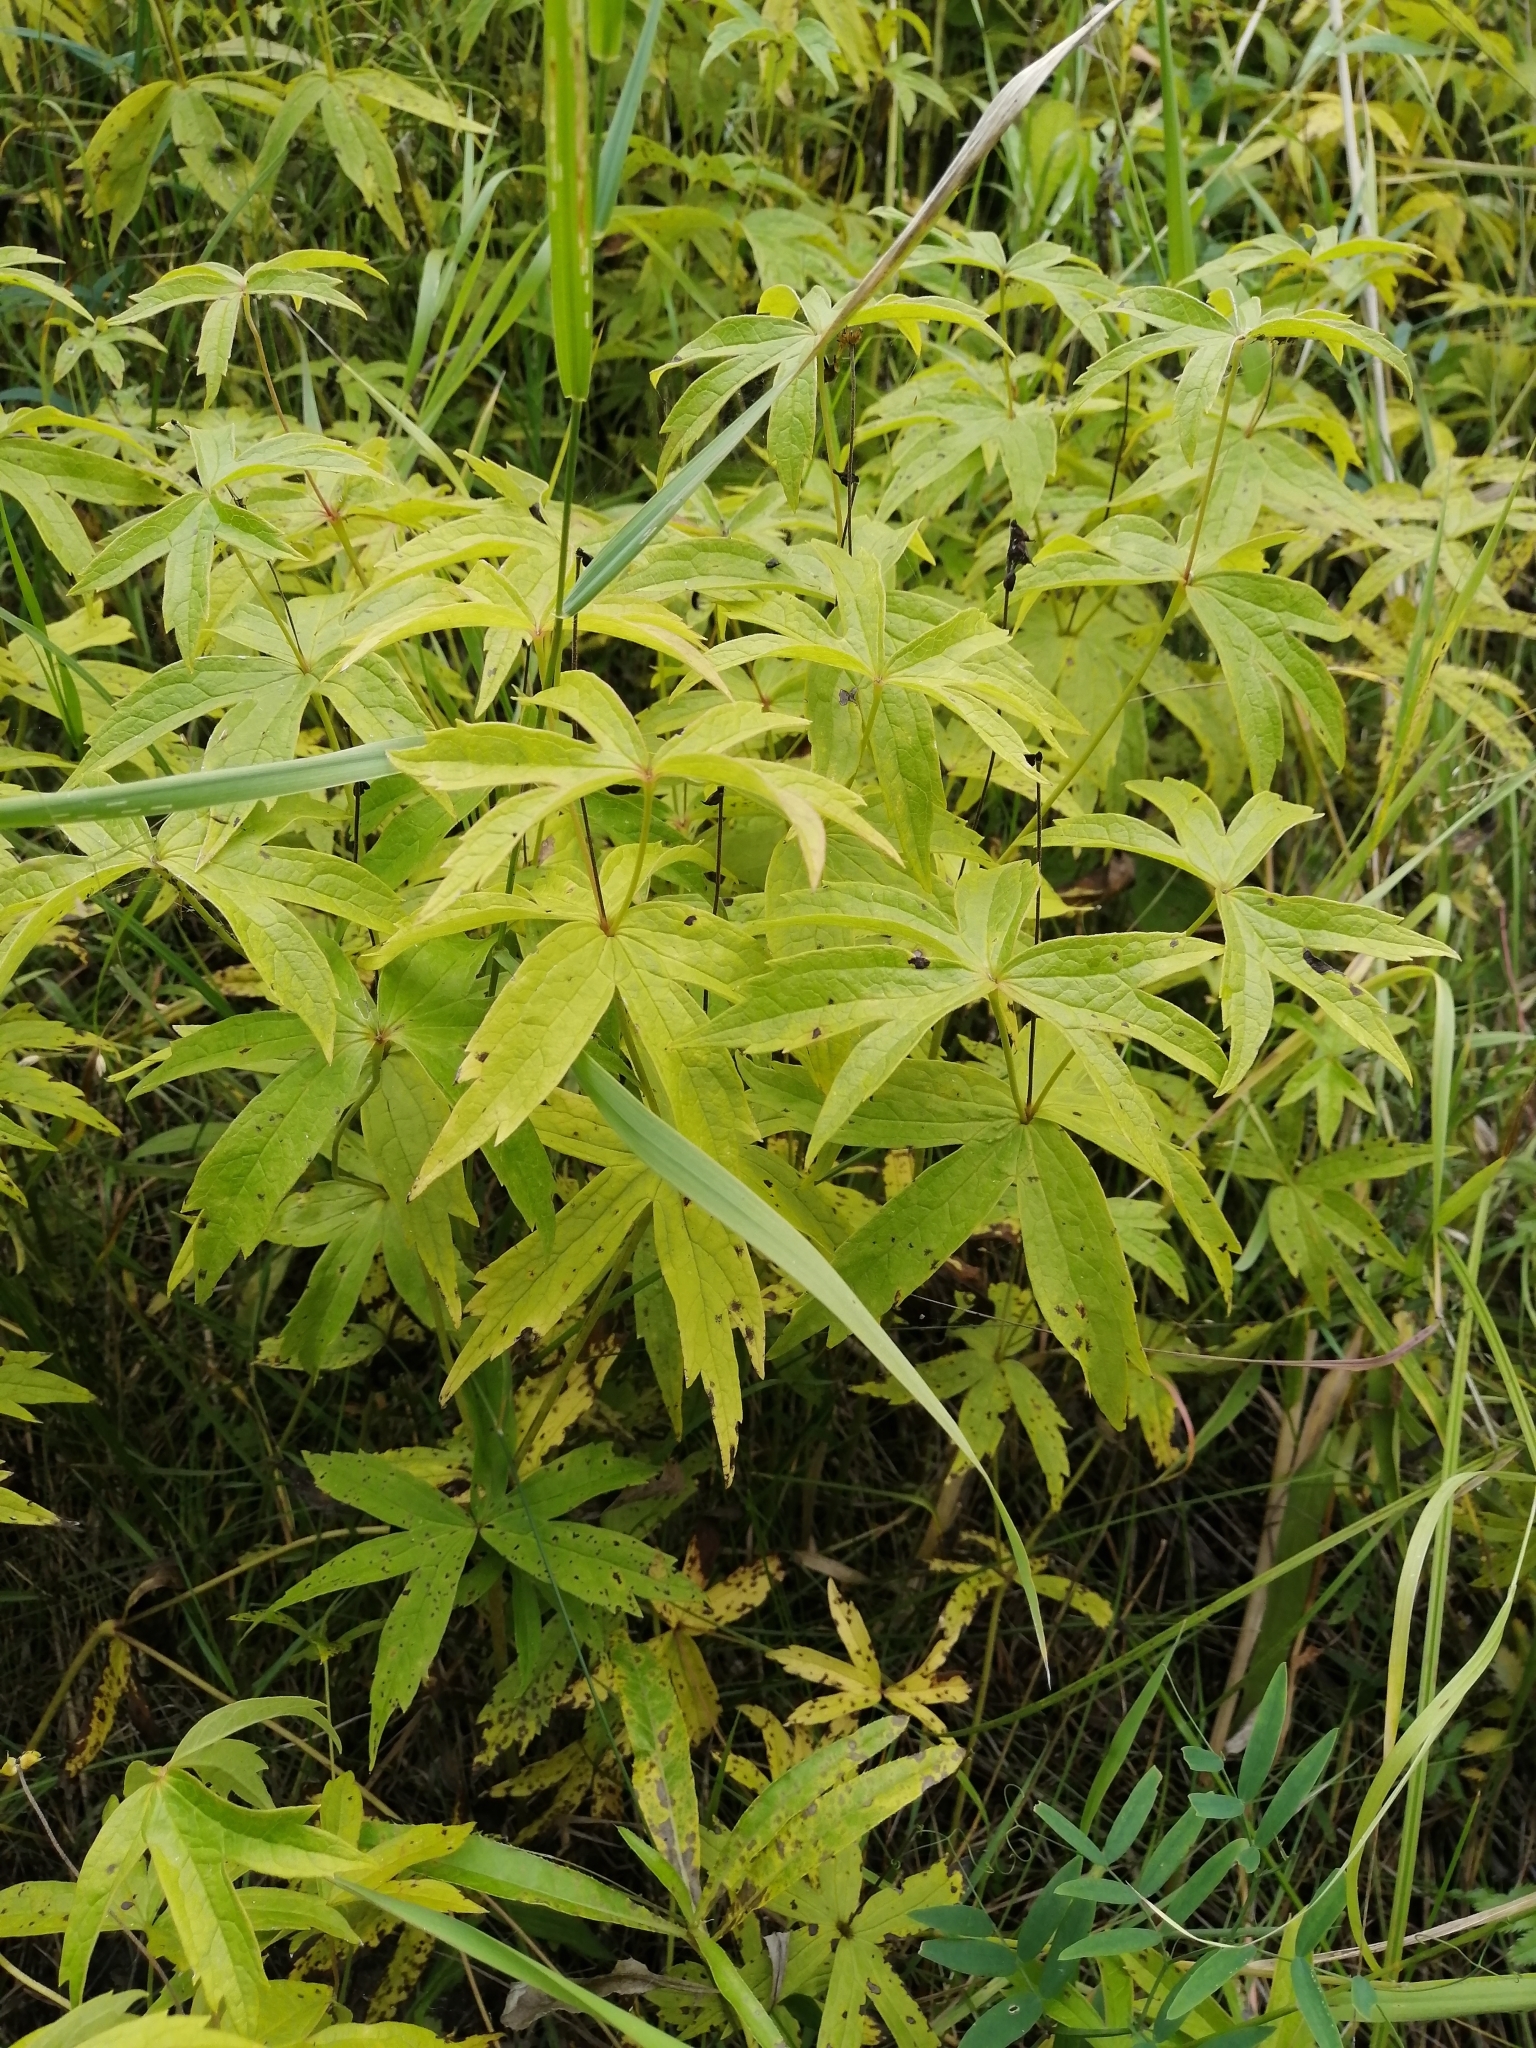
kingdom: Plantae
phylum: Tracheophyta
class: Magnoliopsida
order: Ranunculales
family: Ranunculaceae
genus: Anemonastrum
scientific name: Anemonastrum dichotomum
